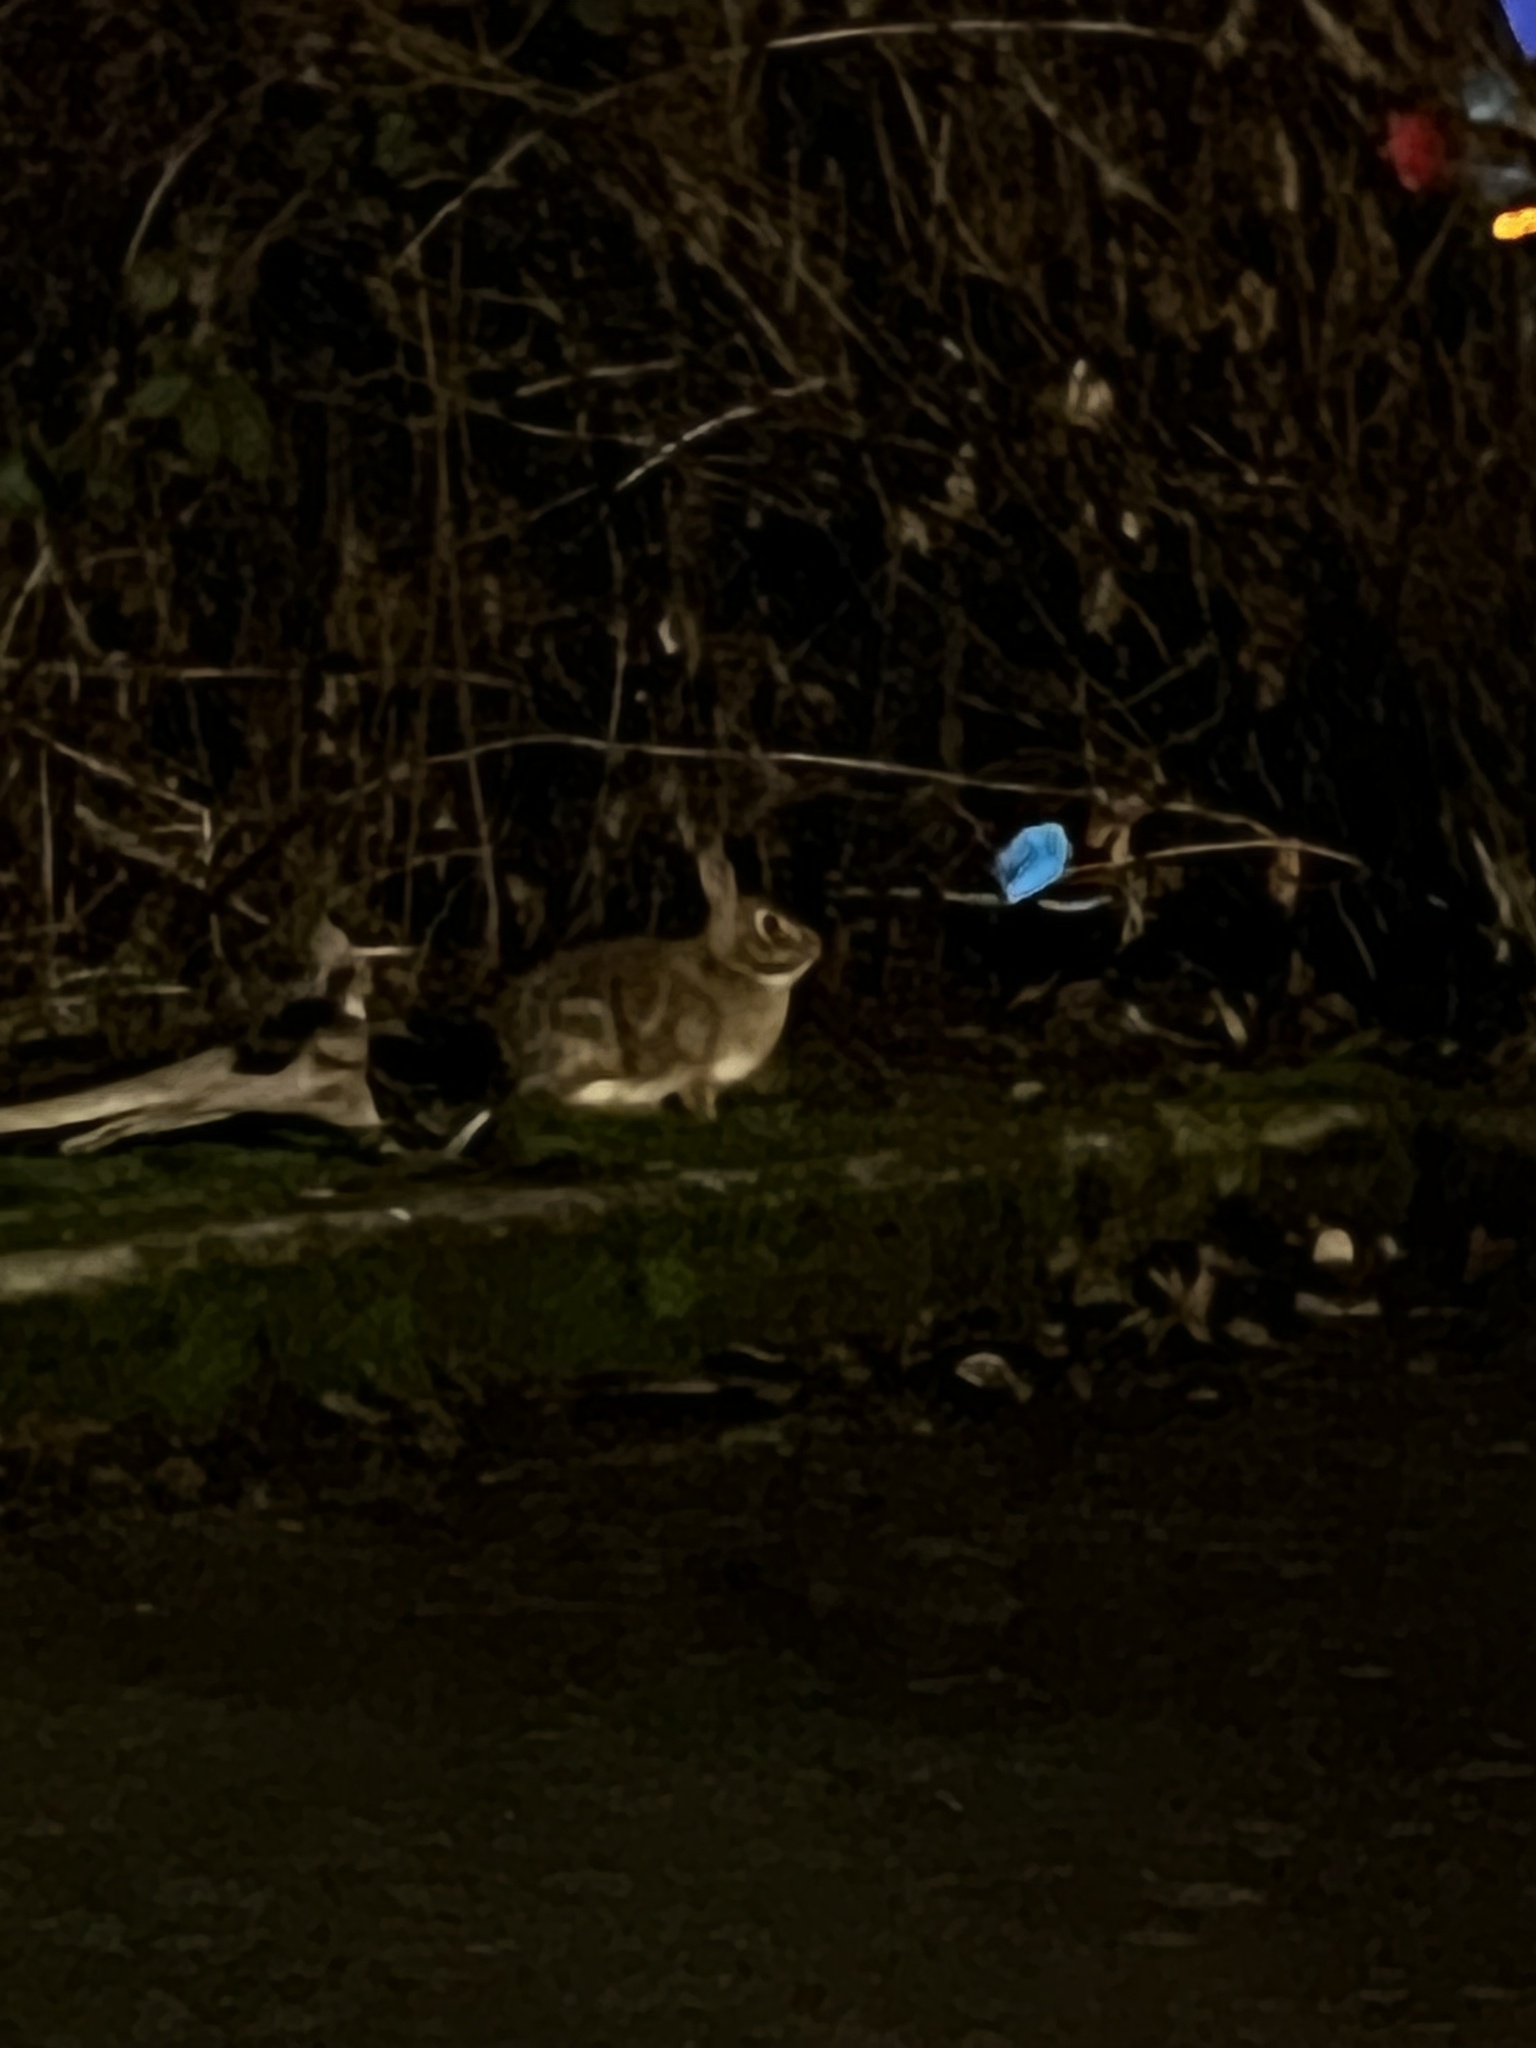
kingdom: Animalia
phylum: Chordata
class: Mammalia
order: Lagomorpha
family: Leporidae
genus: Sylvilagus
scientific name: Sylvilagus floridanus
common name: Eastern cottontail
